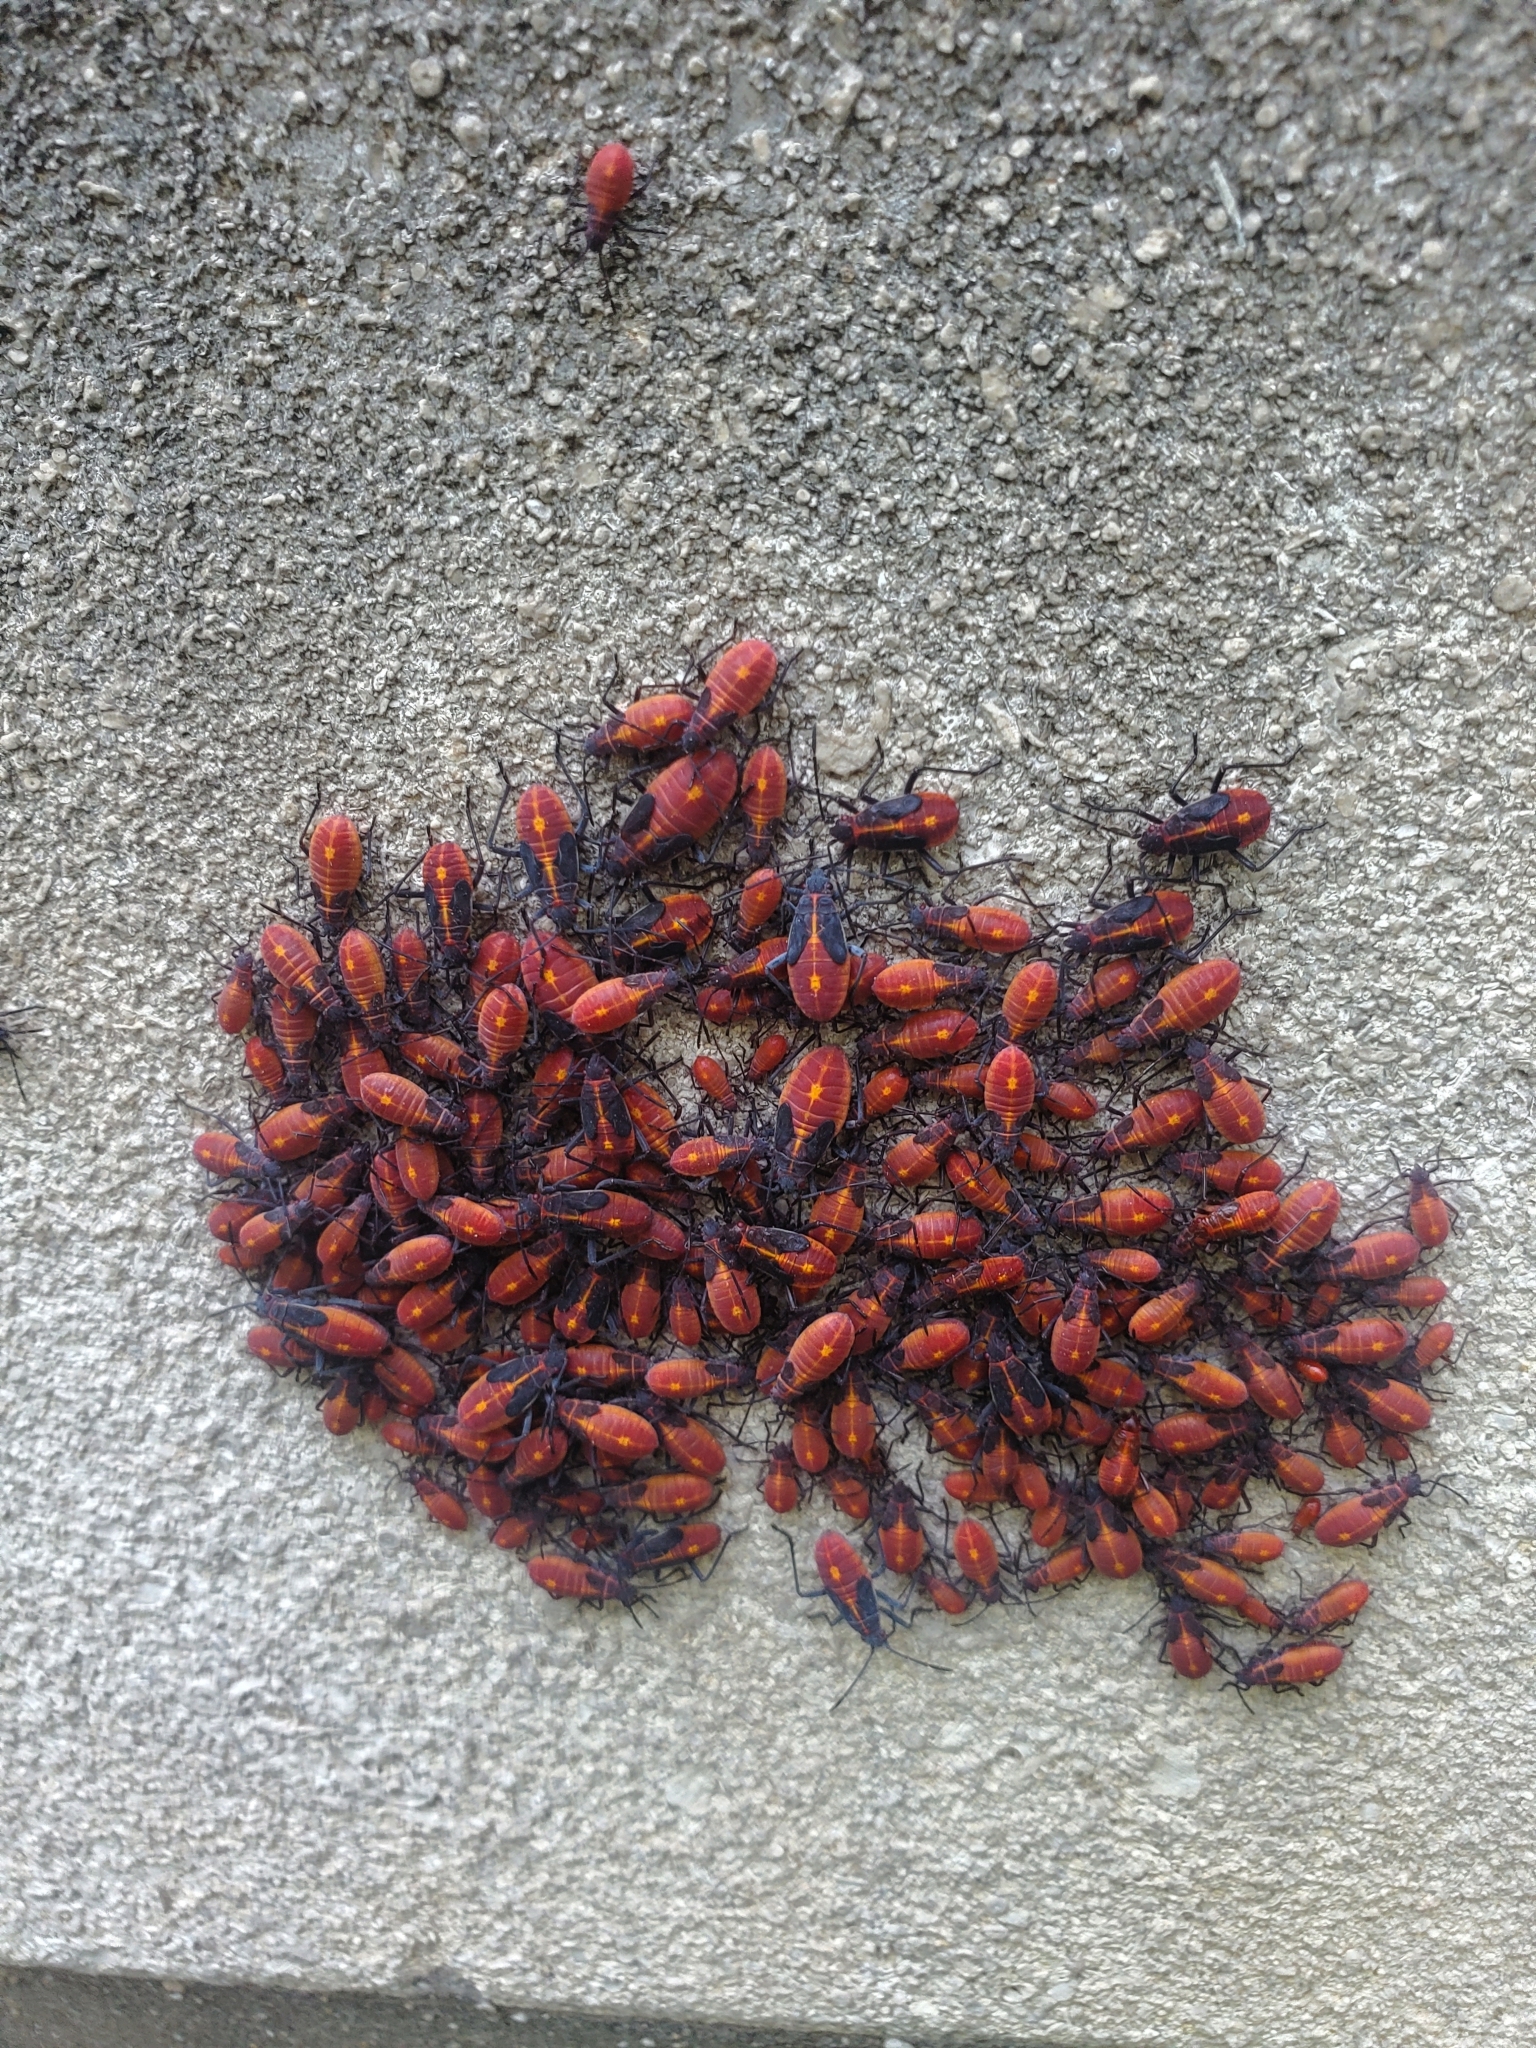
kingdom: Animalia
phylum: Arthropoda
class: Insecta
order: Hemiptera
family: Rhopalidae
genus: Boisea
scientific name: Boisea trivittata
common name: Boxelder bug
